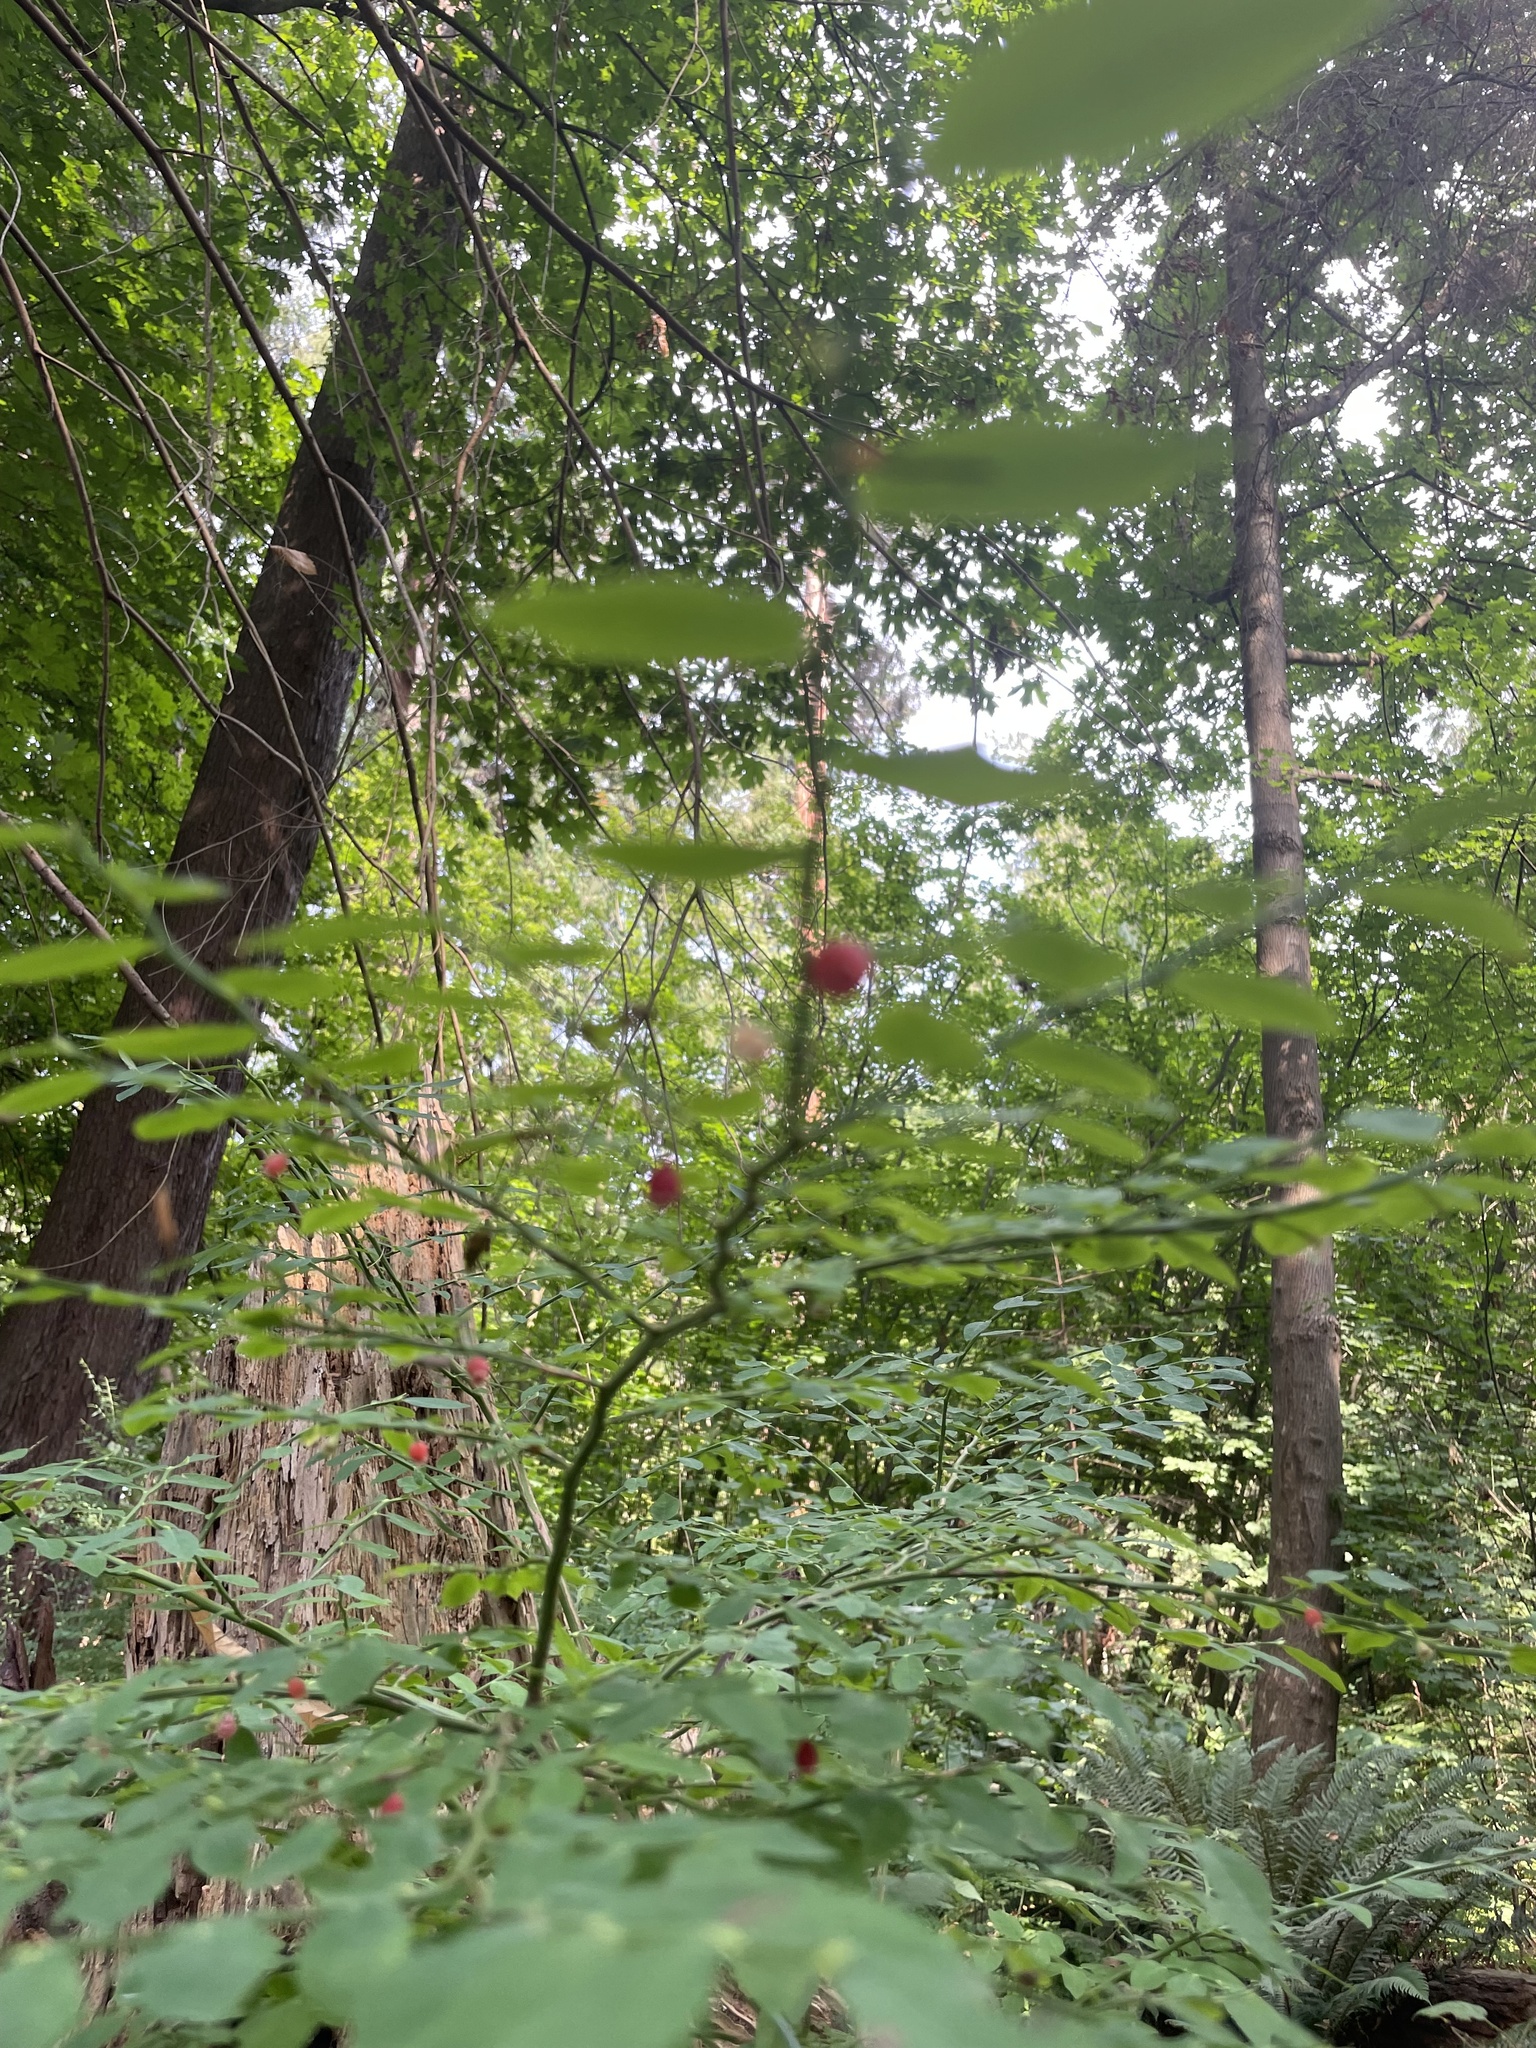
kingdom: Plantae
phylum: Tracheophyta
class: Magnoliopsida
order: Ericales
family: Ericaceae
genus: Vaccinium
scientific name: Vaccinium parvifolium
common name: Red-huckleberry
